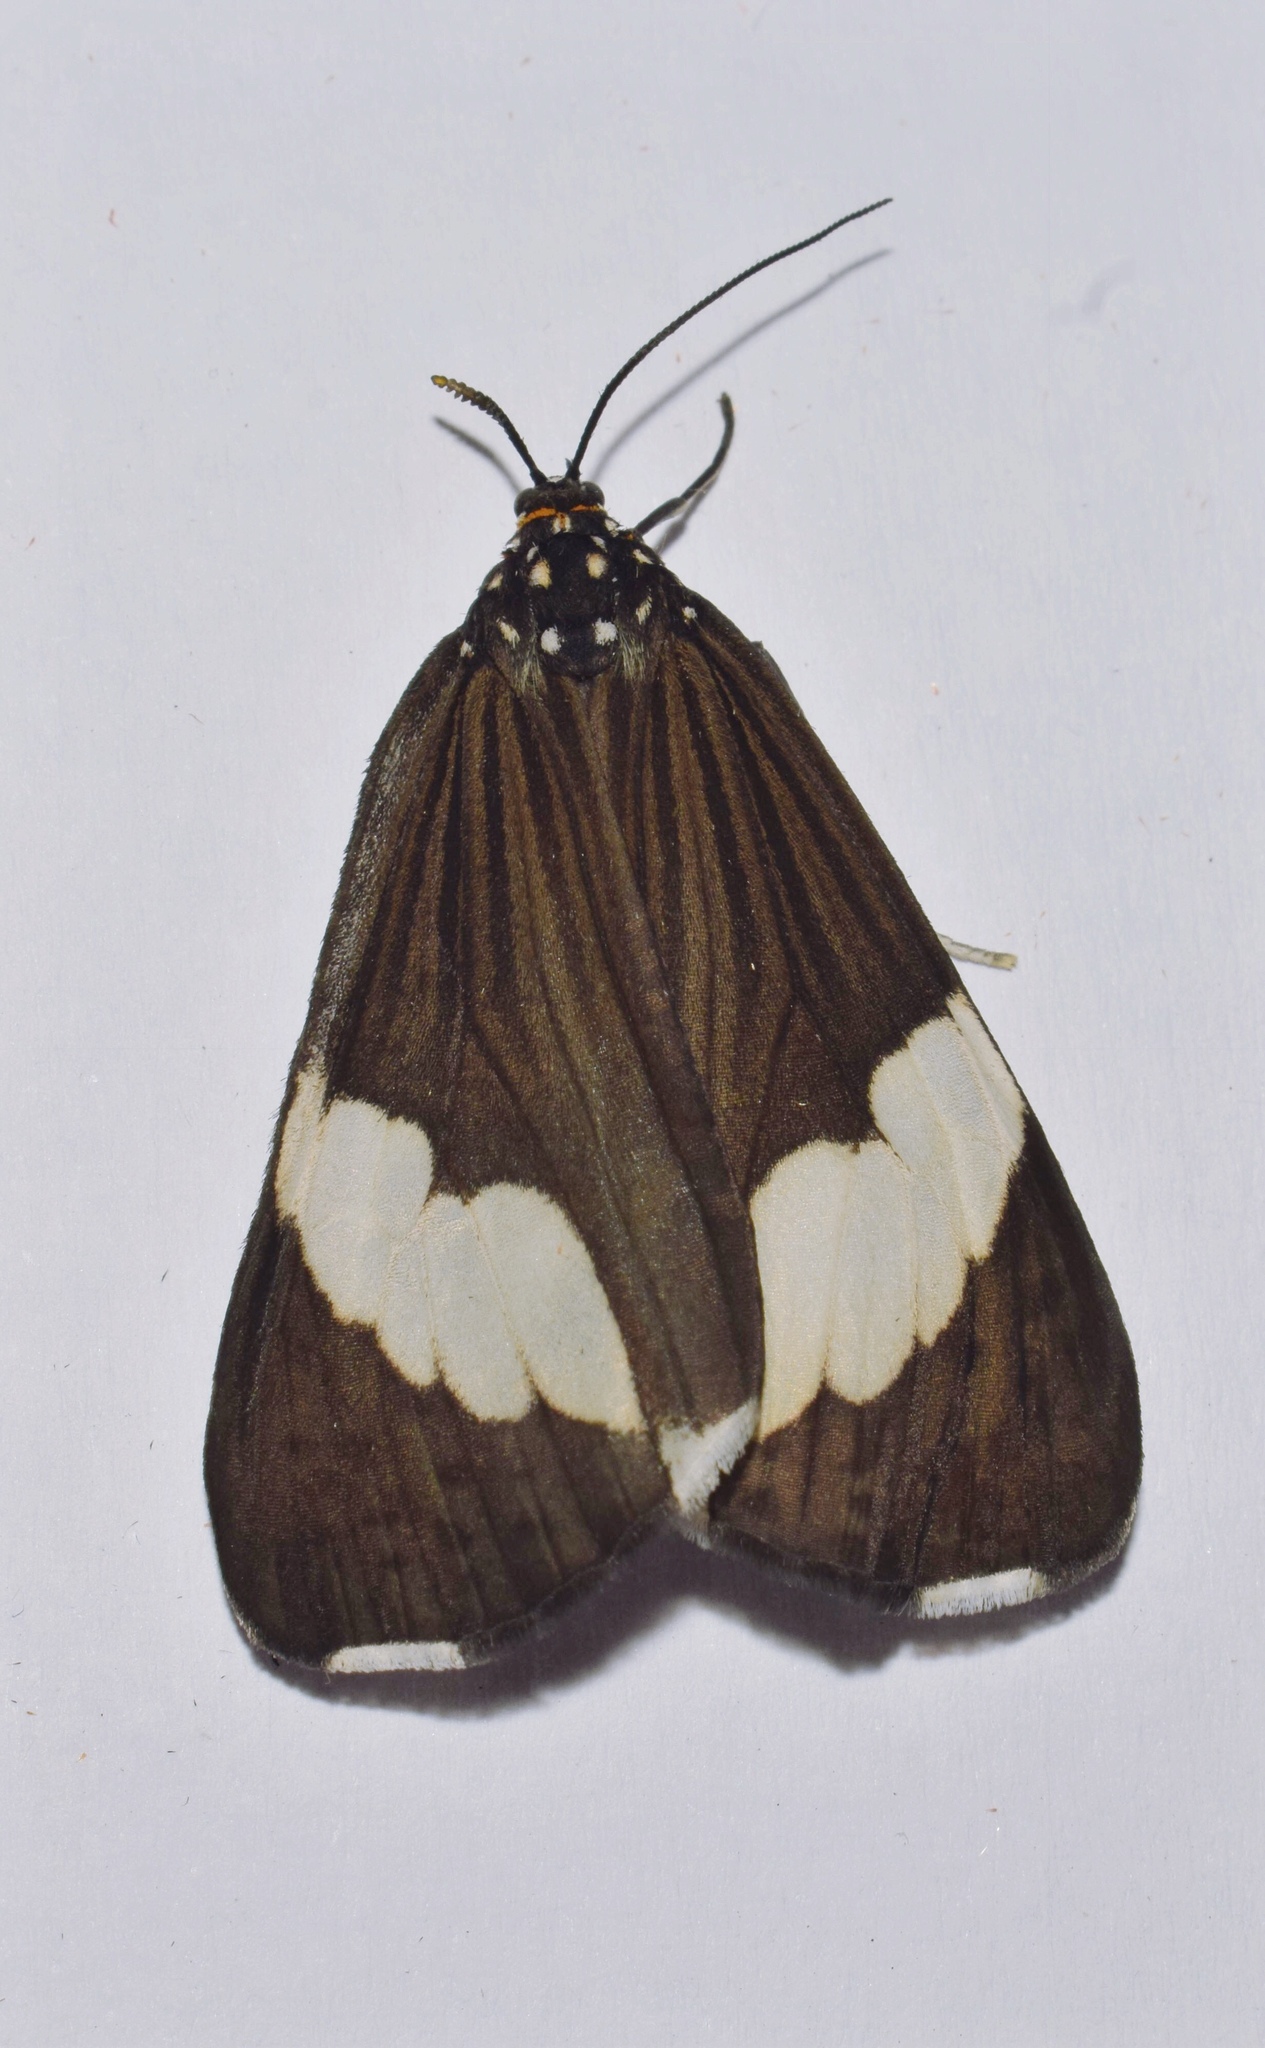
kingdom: Animalia
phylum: Arthropoda
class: Insecta
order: Lepidoptera
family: Erebidae
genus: Nyctemera
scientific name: Nyctemera apicalis
